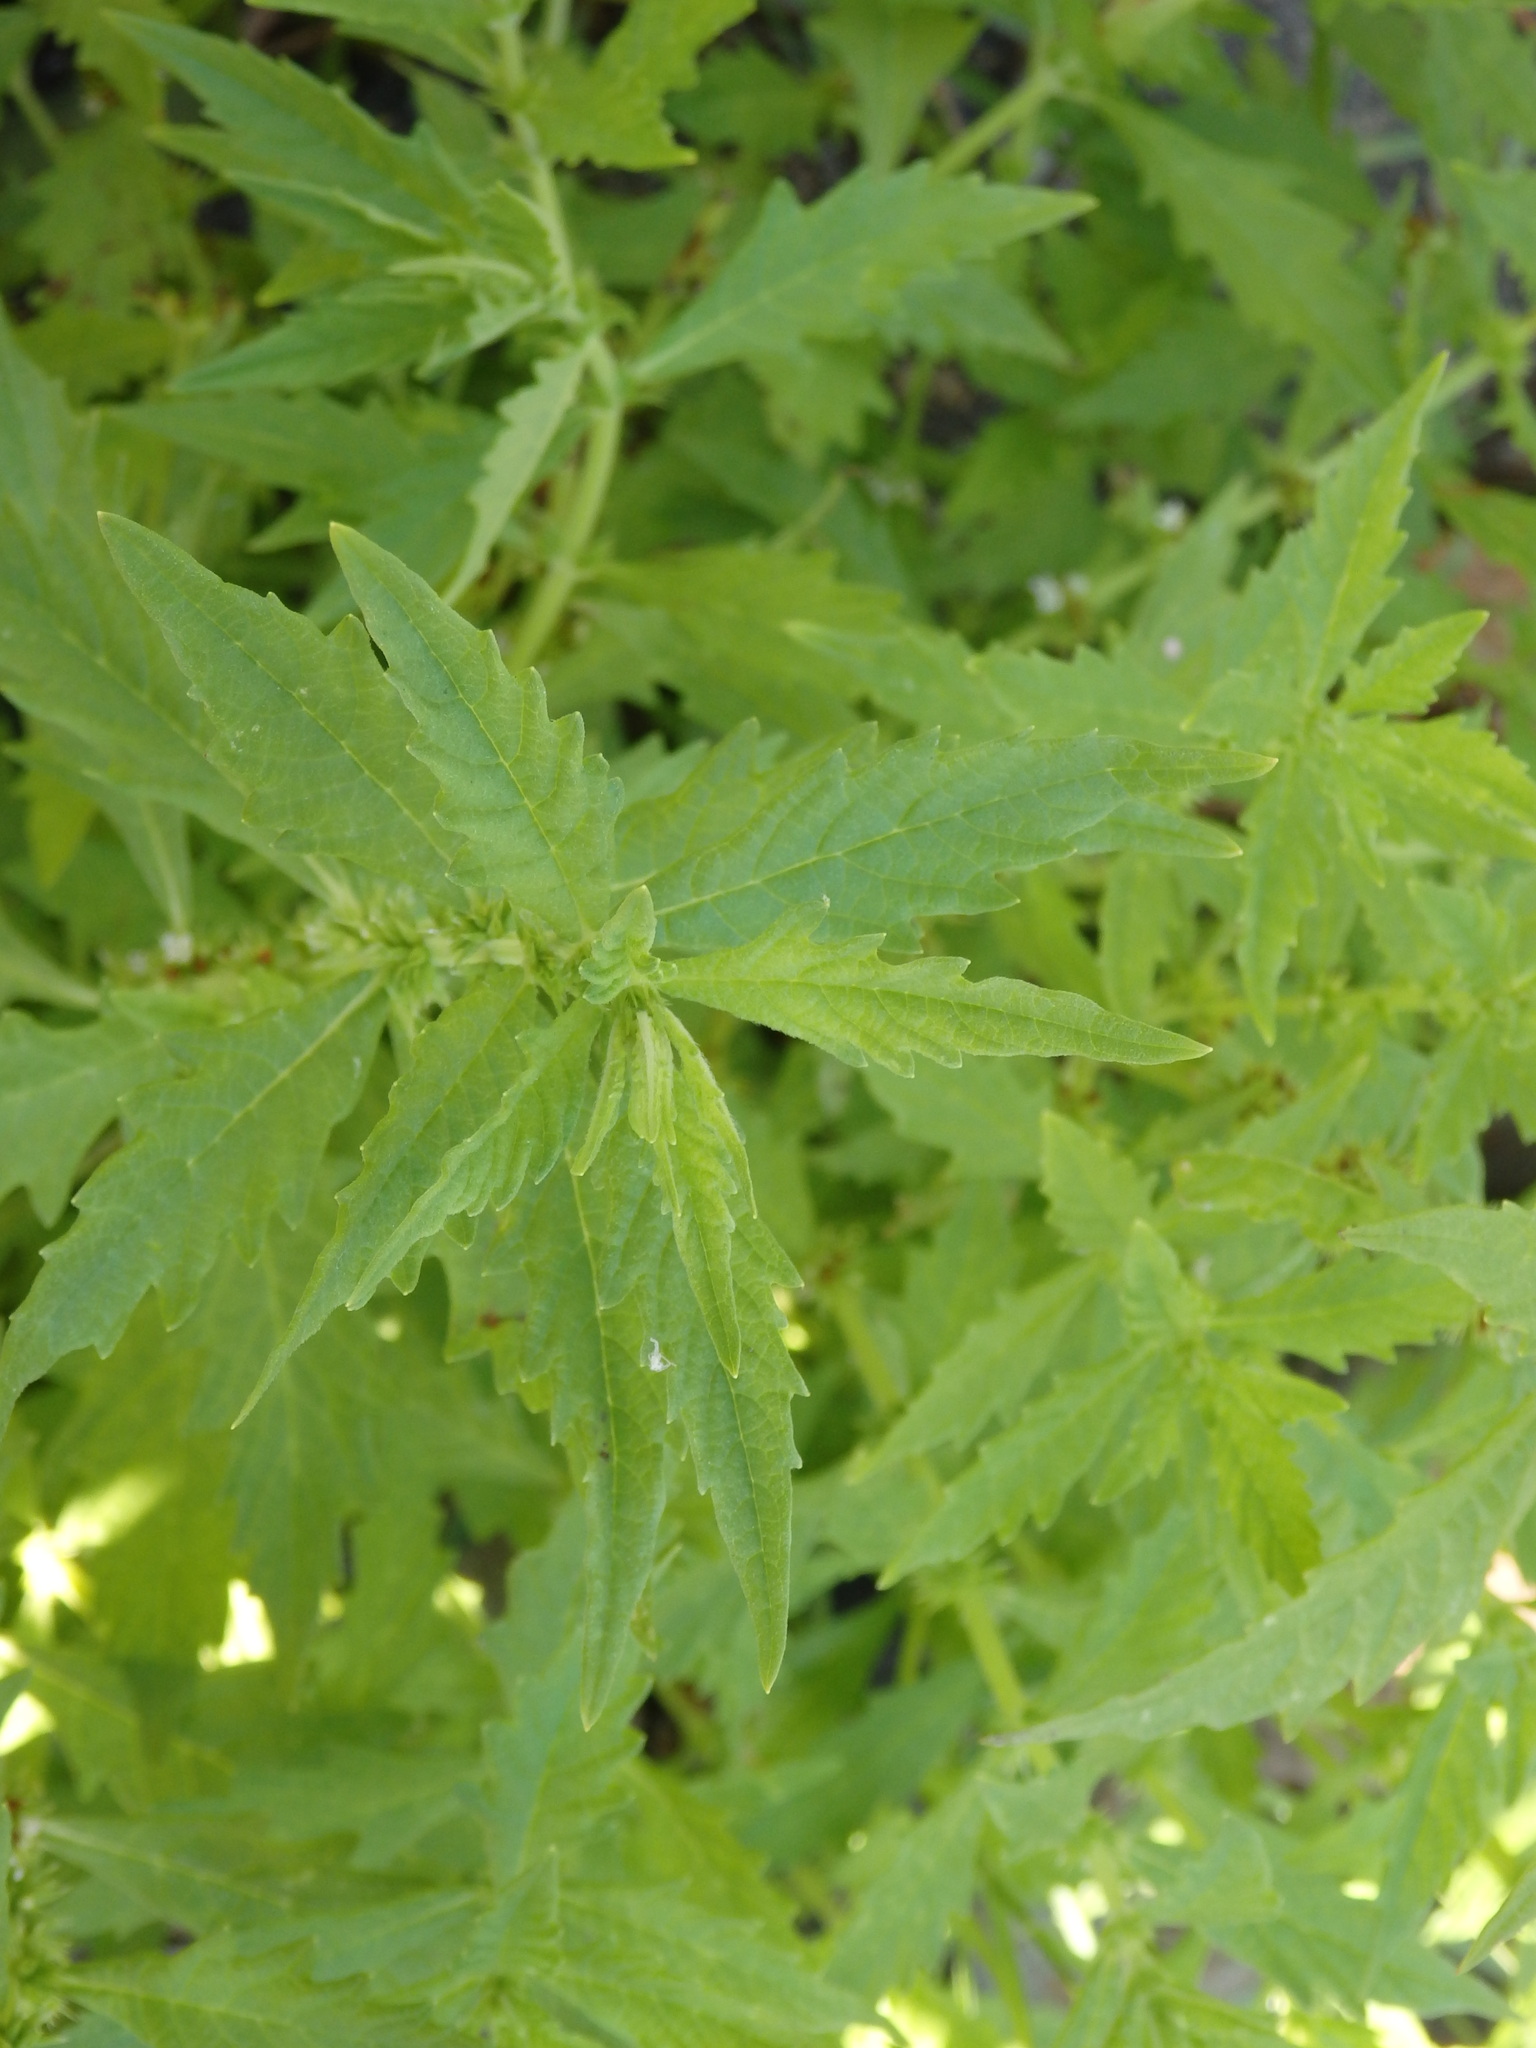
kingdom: Plantae
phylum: Tracheophyta
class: Magnoliopsida
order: Lamiales
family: Lamiaceae
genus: Lycopus
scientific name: Lycopus europaeus
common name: European bugleweed
